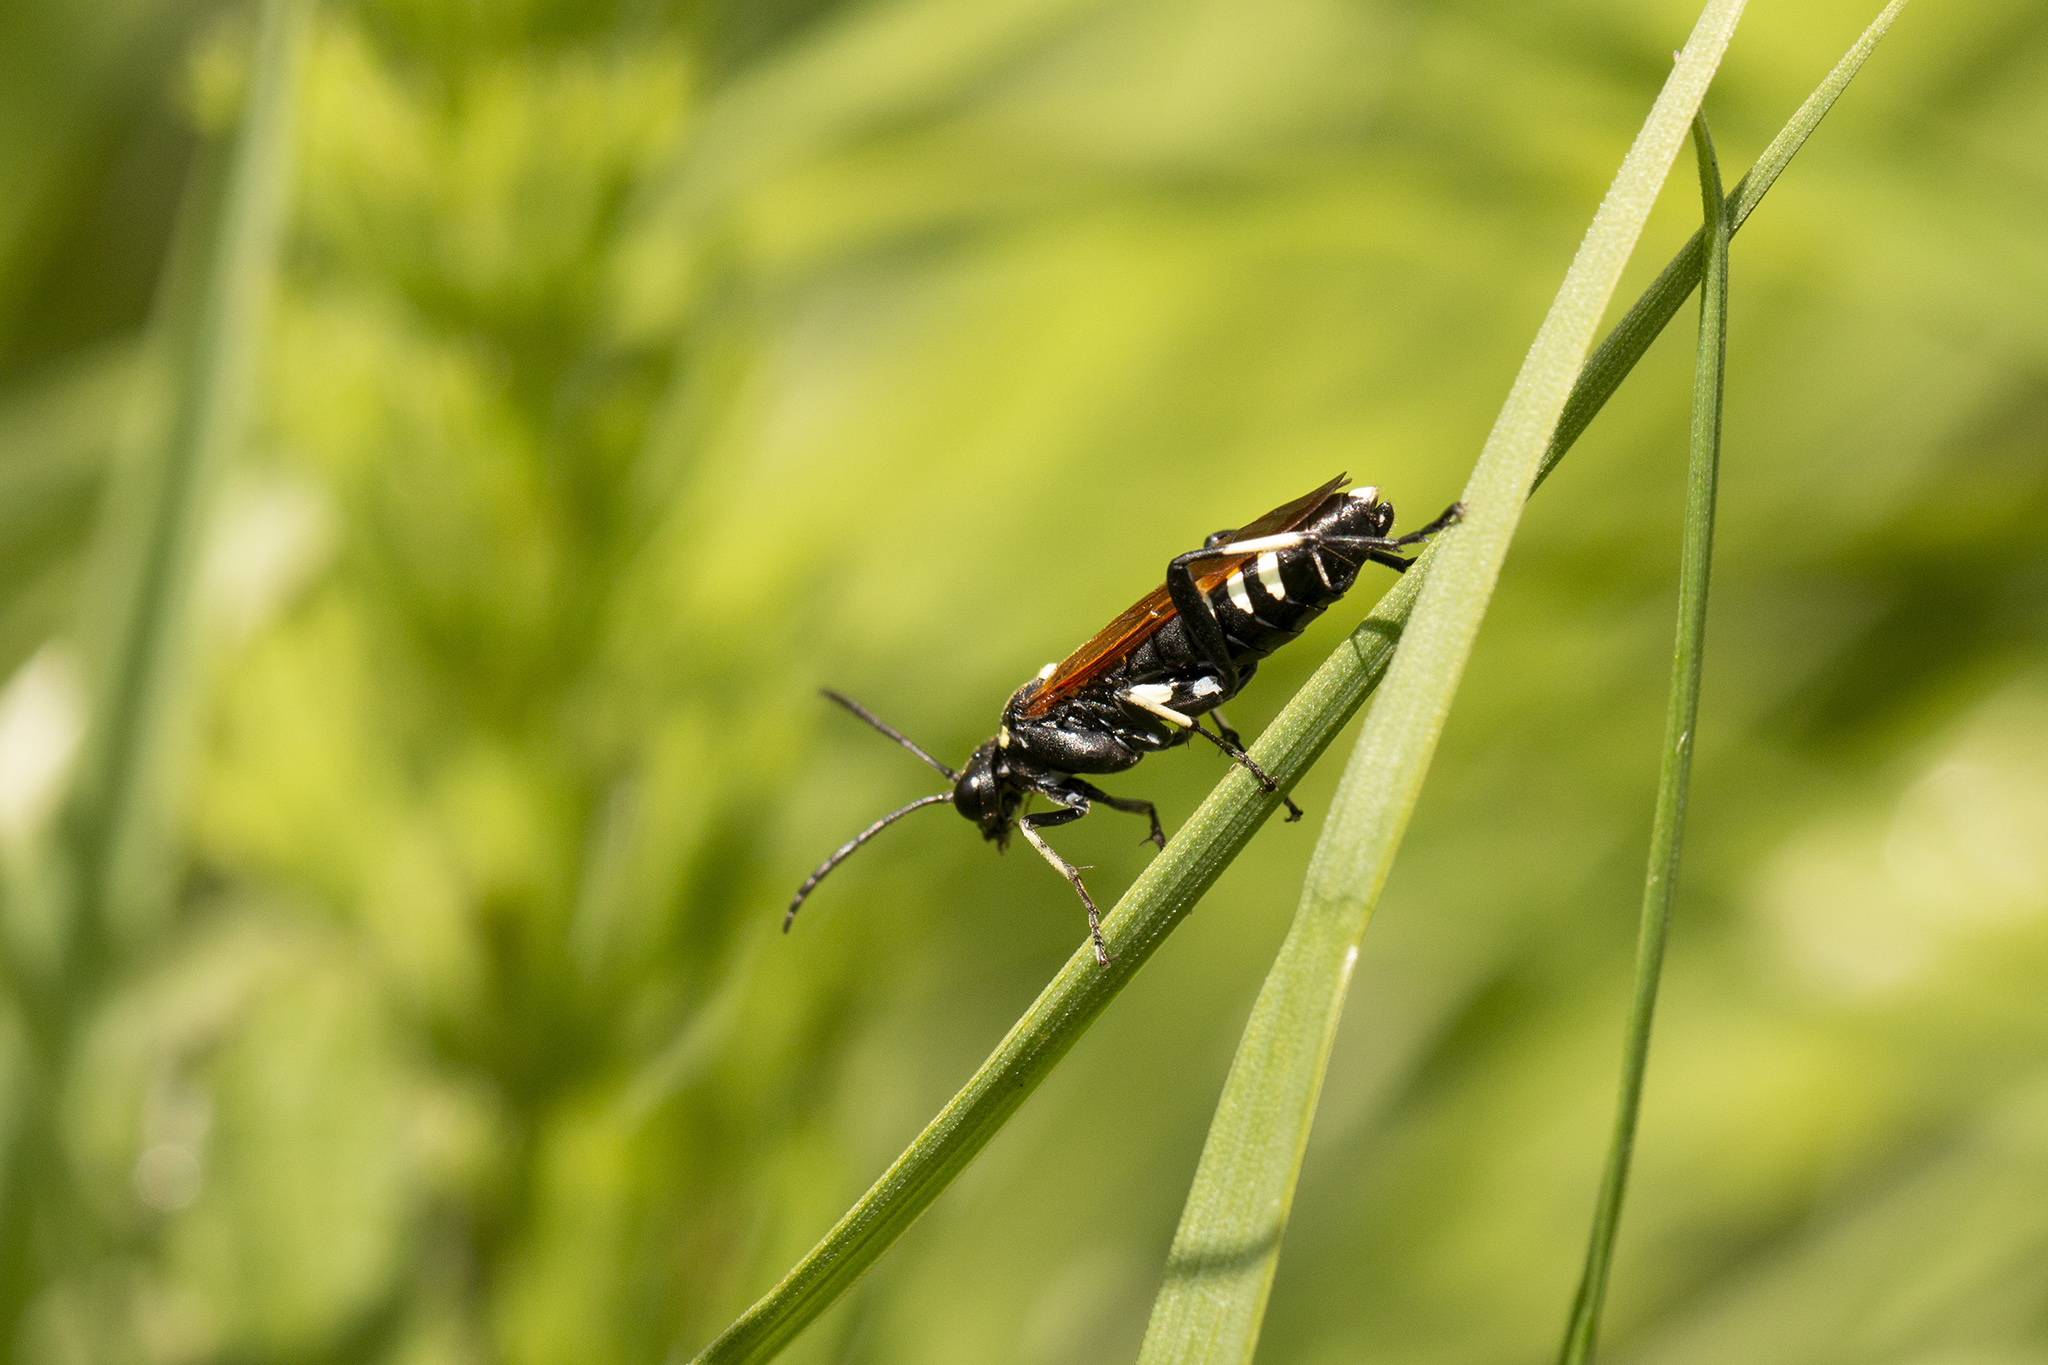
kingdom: Animalia
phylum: Arthropoda
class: Insecta
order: Hymenoptera
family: Tenthredinidae
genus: Macrophya
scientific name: Macrophya duodecimpunctata
